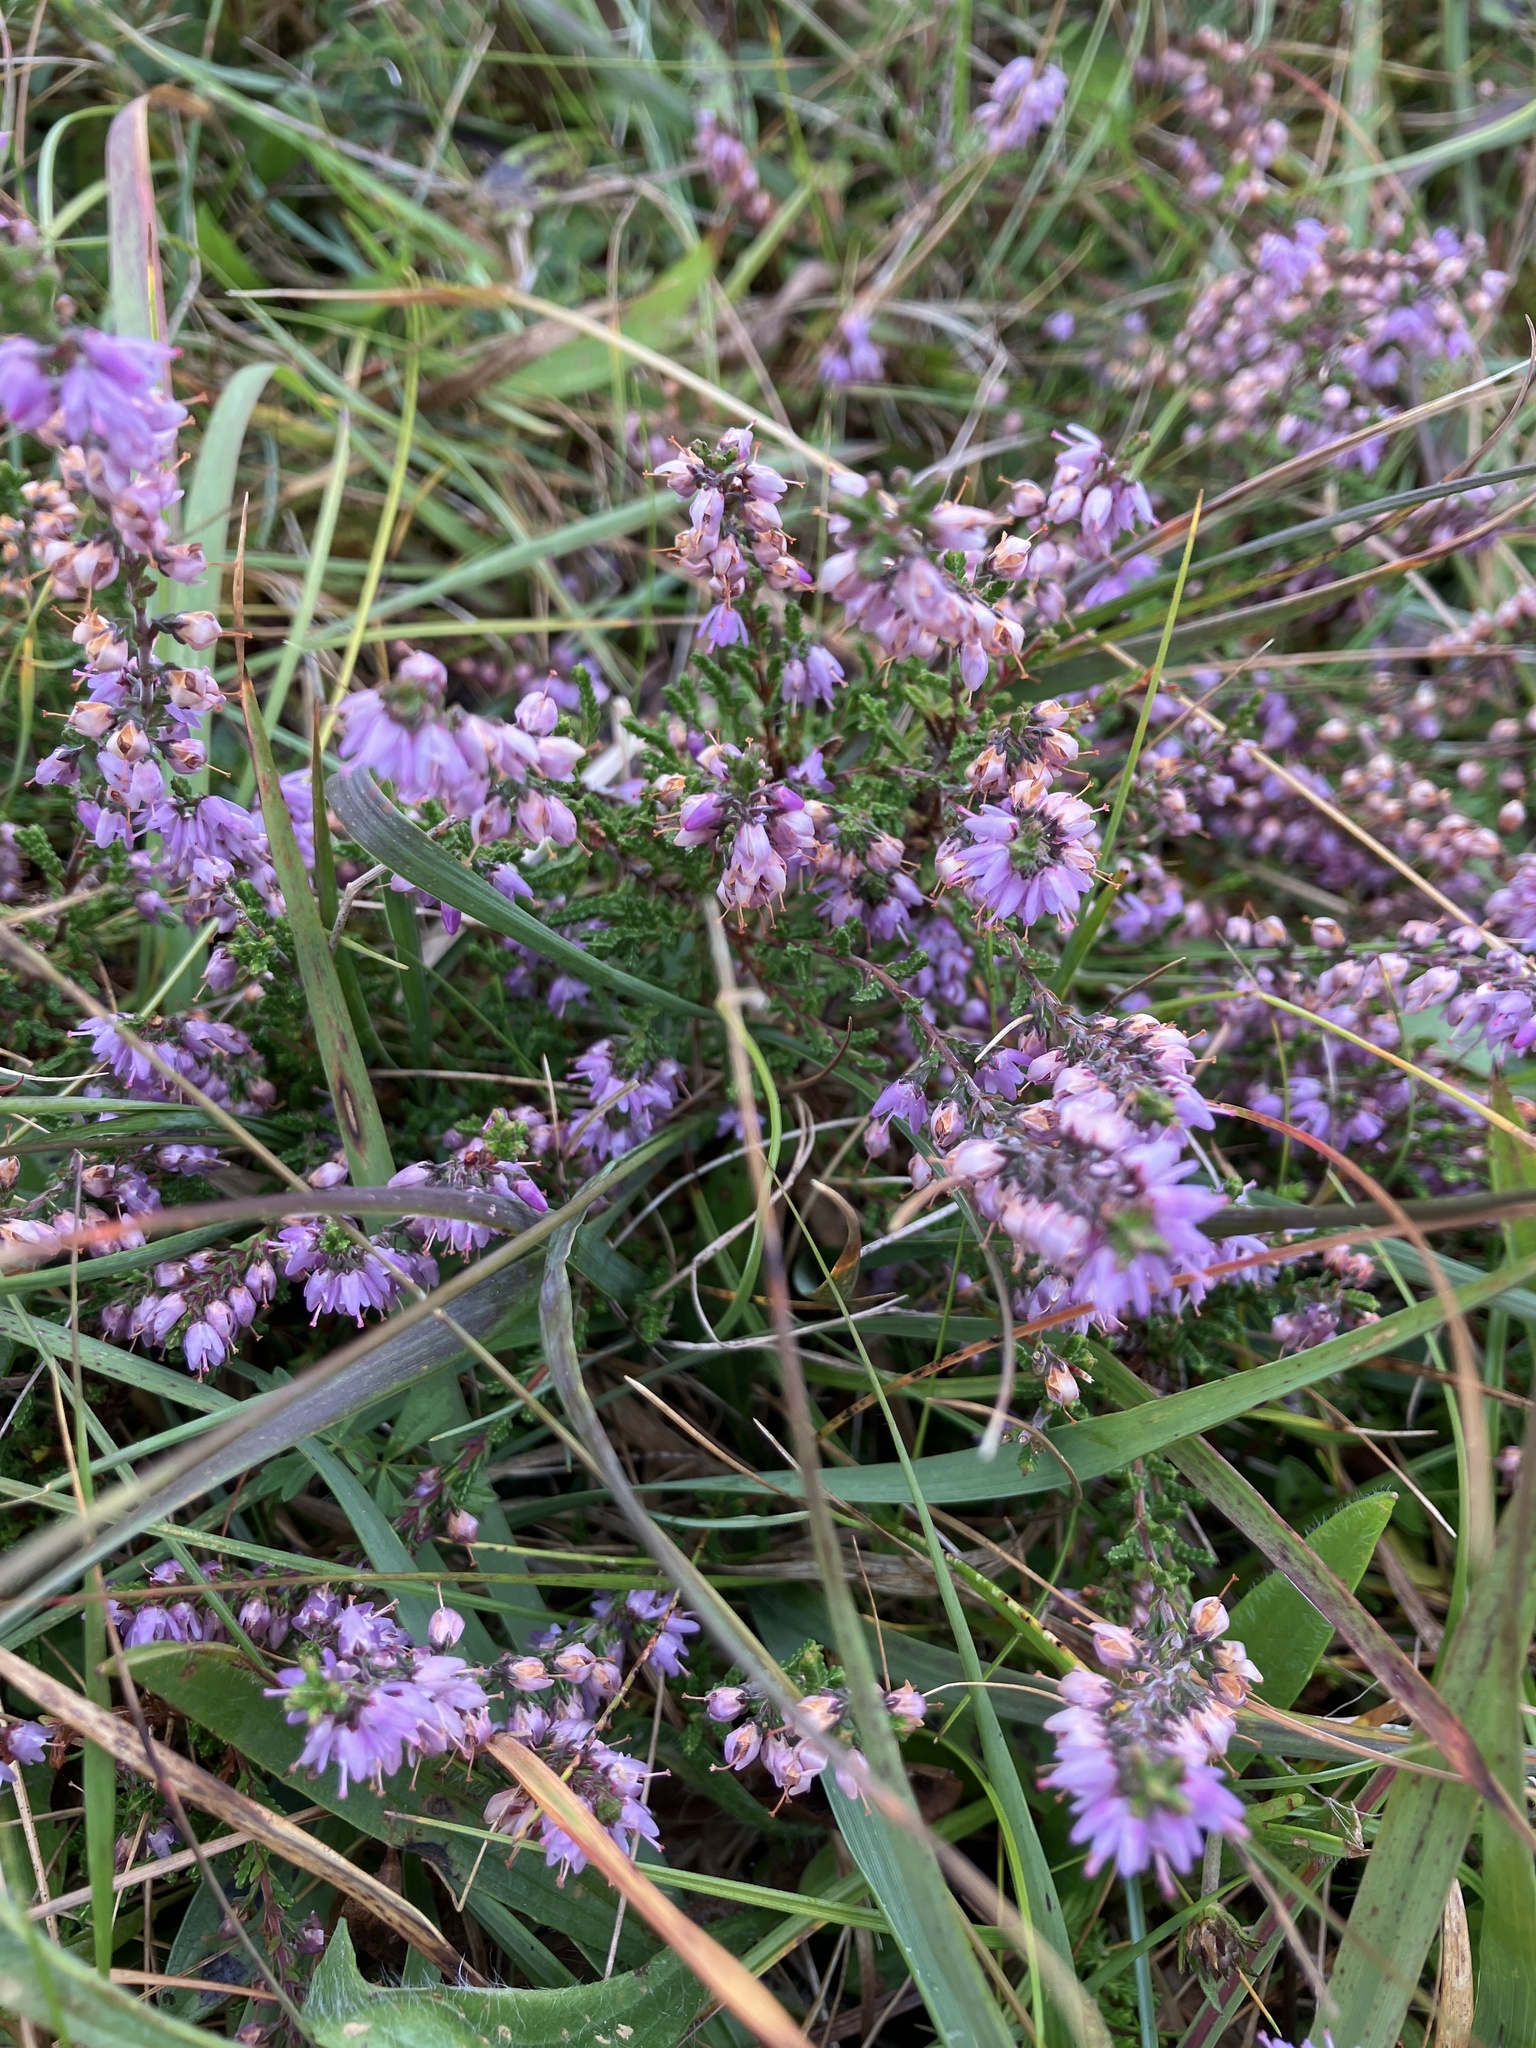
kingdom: Plantae
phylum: Tracheophyta
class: Magnoliopsida
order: Ericales
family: Ericaceae
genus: Calluna
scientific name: Calluna vulgaris
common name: Heather
